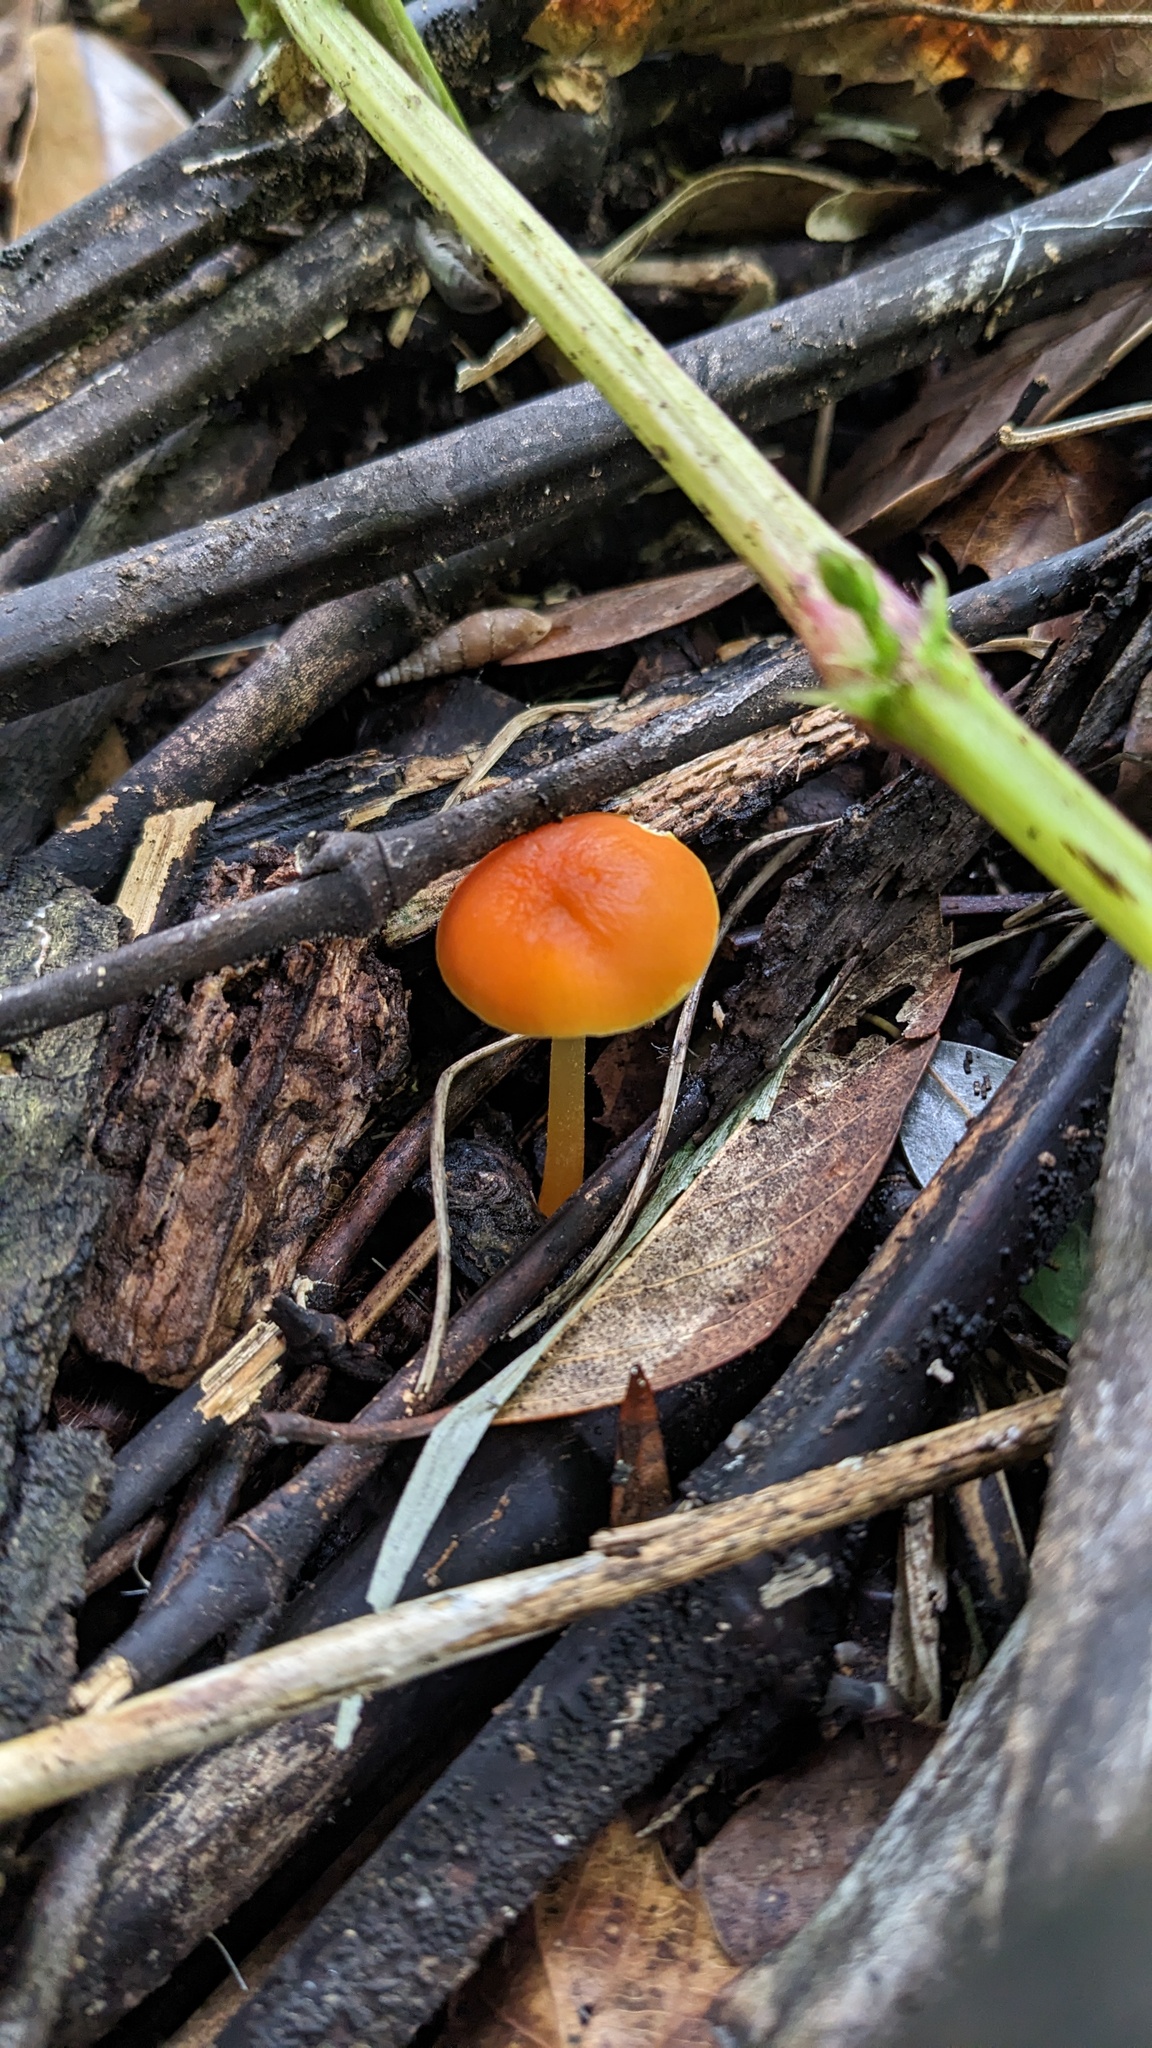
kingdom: Fungi
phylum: Basidiomycota
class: Agaricomycetes
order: Agaricales
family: Pluteaceae
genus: Pluteus
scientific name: Pluteus aurantiorugosus
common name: Flame shield
